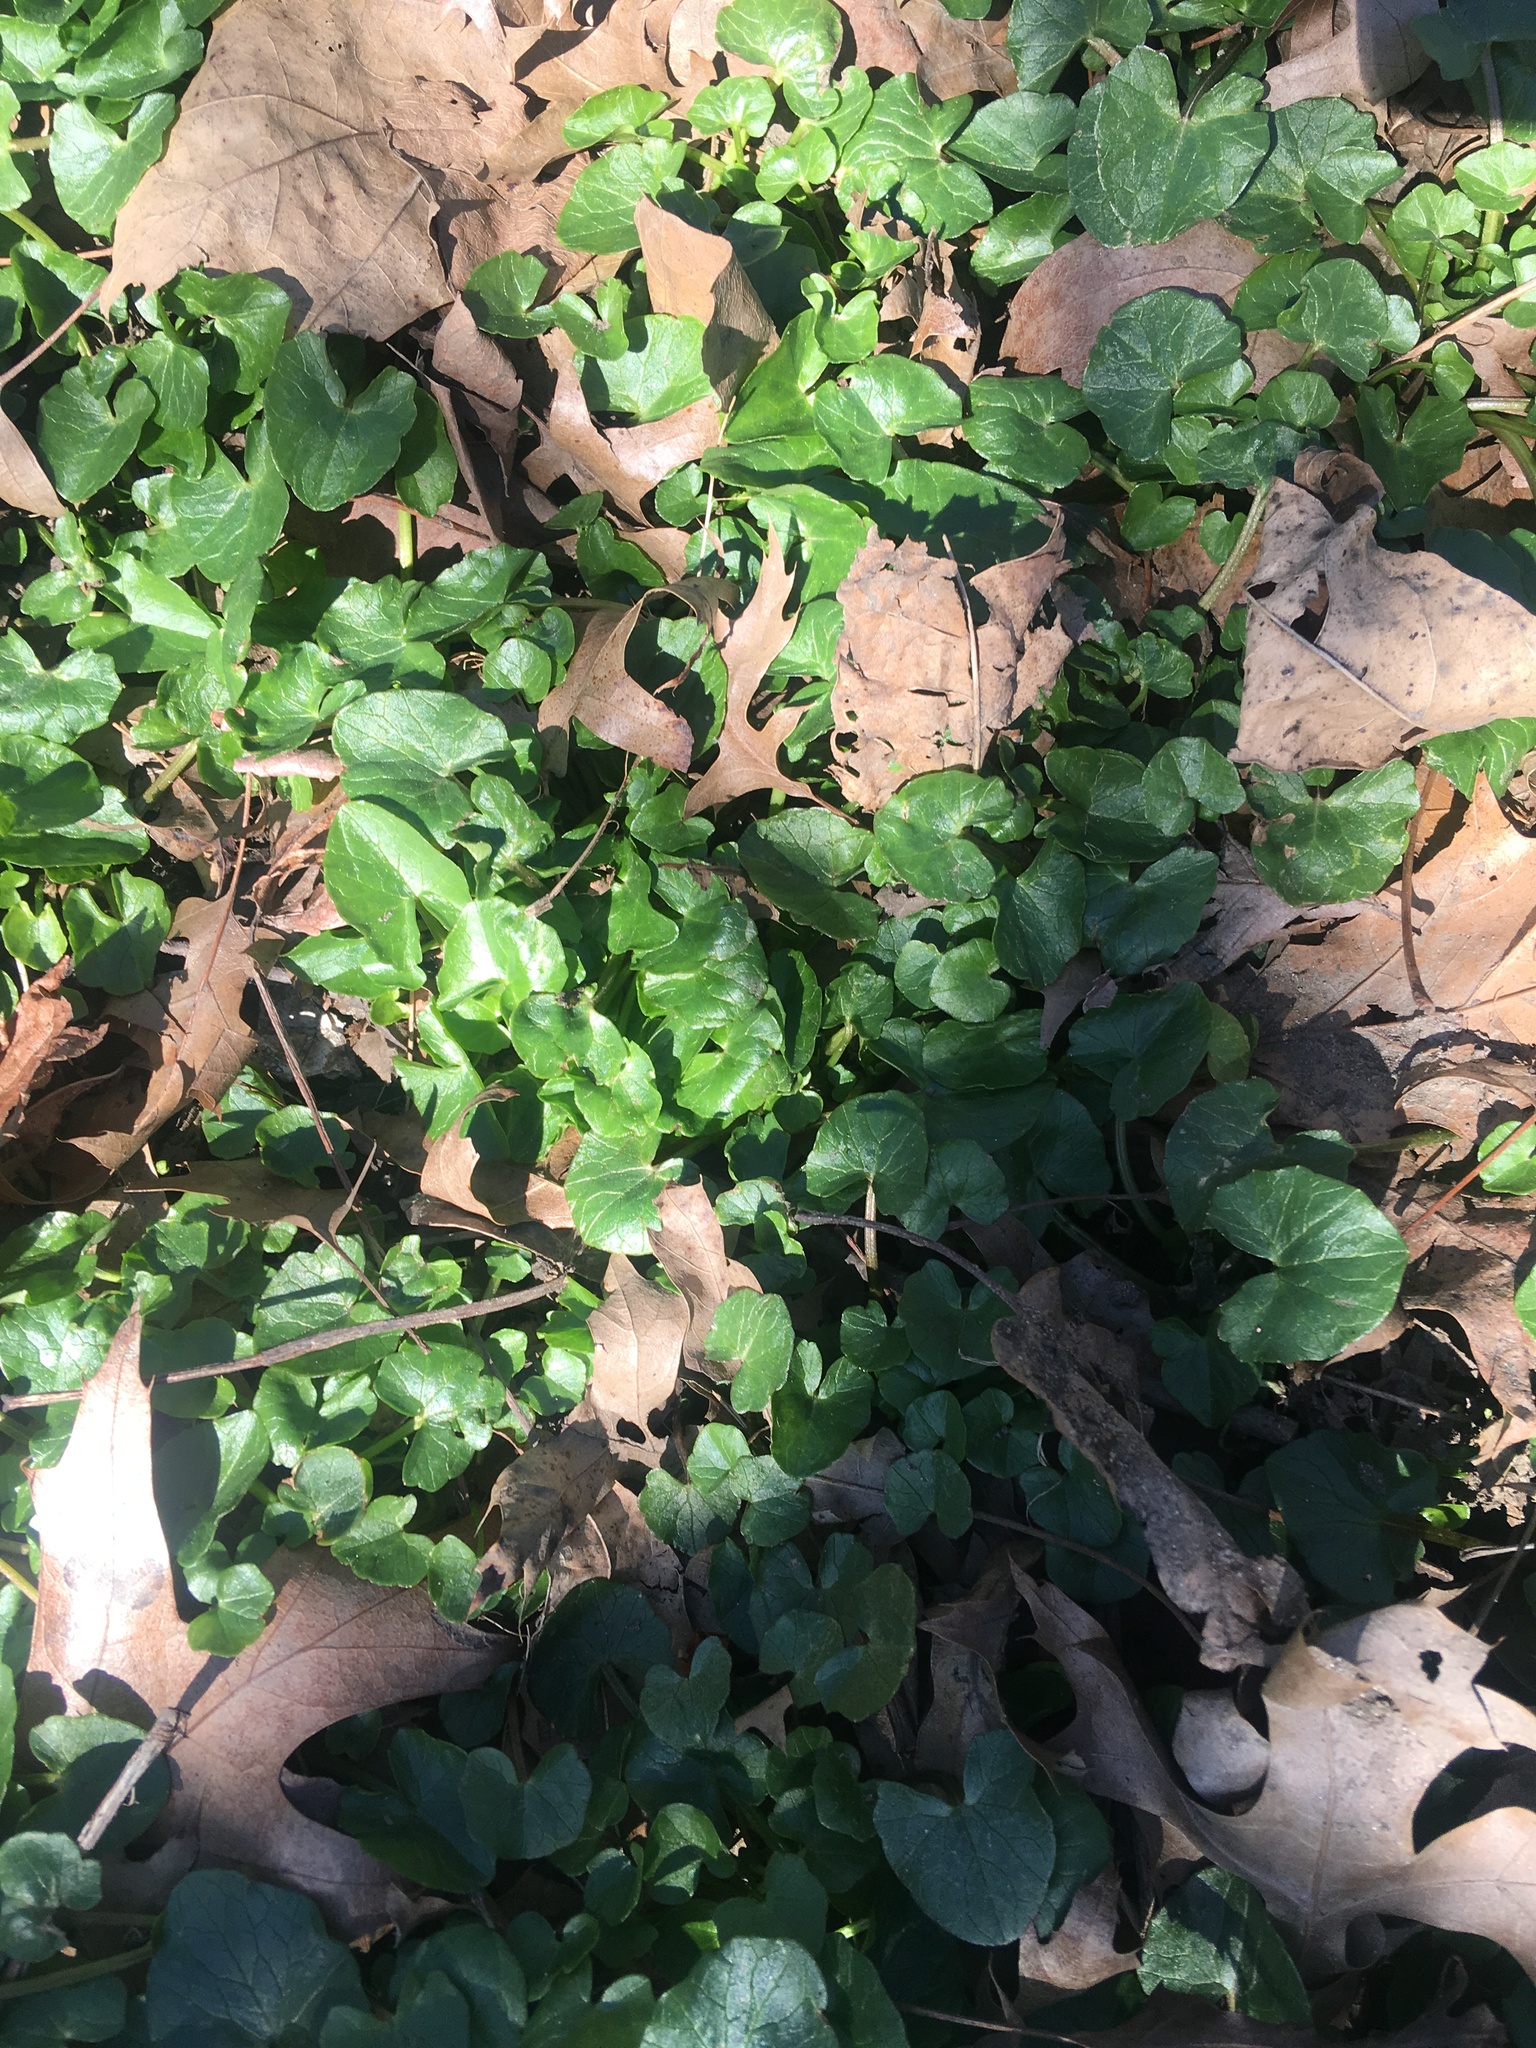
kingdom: Plantae
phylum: Tracheophyta
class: Magnoliopsida
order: Ranunculales
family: Ranunculaceae
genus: Ficaria
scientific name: Ficaria verna
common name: Lesser celandine
